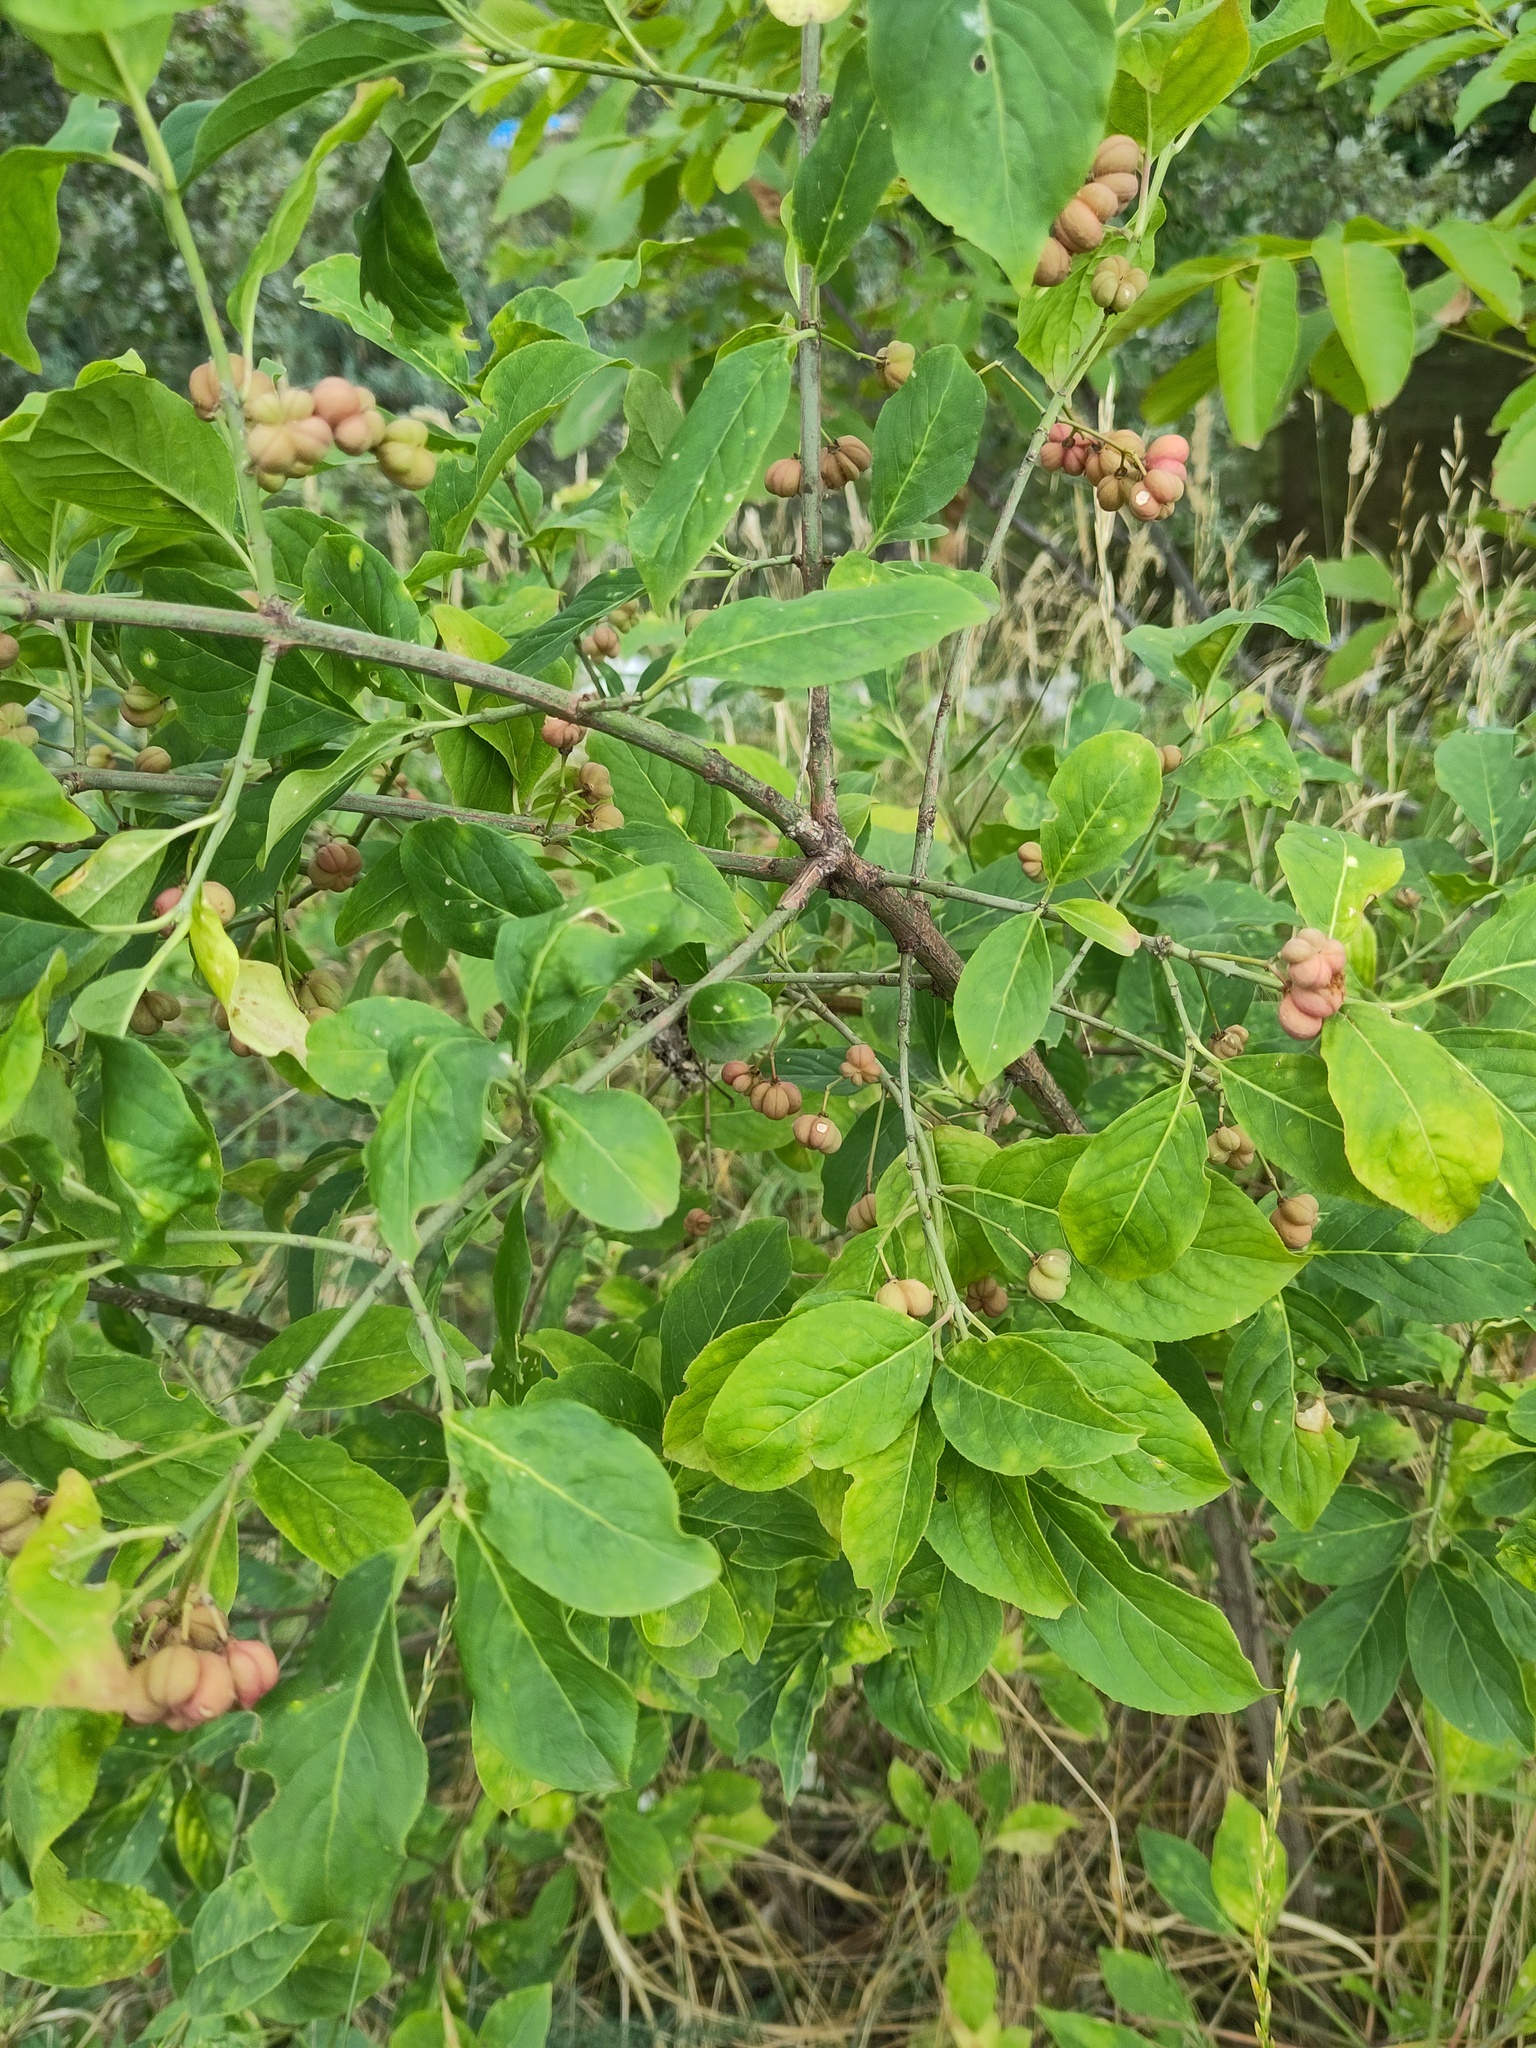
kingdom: Plantae
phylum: Tracheophyta
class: Magnoliopsida
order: Celastrales
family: Celastraceae
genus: Euonymus
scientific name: Euonymus europaeus
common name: Spindle
